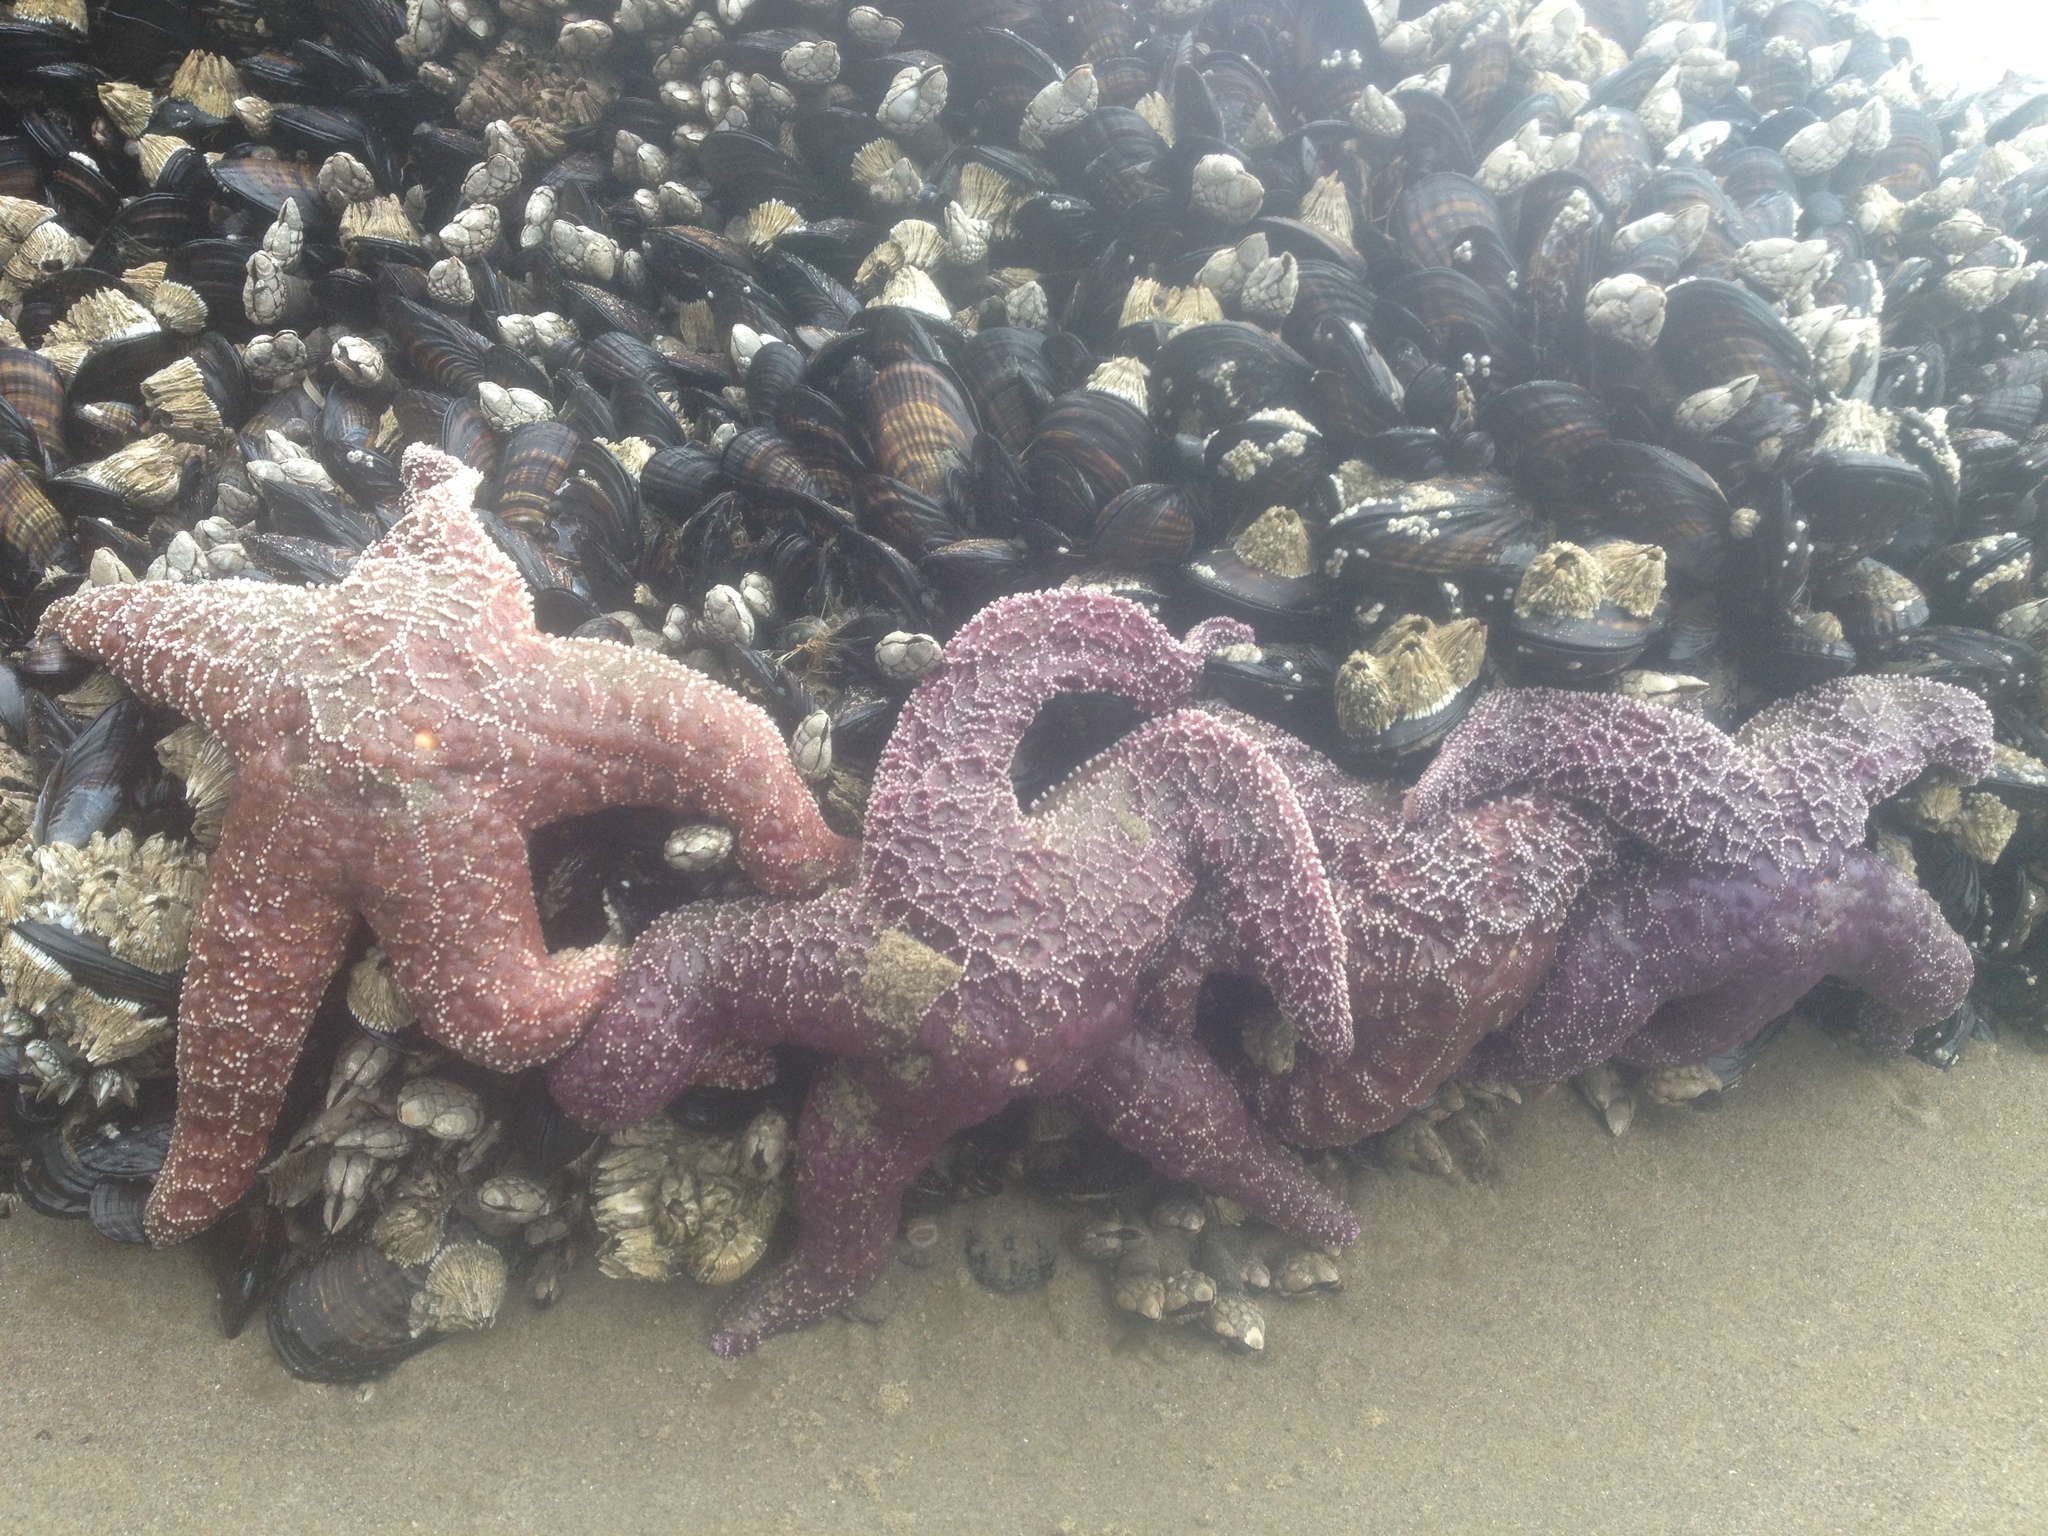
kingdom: Animalia
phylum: Echinodermata
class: Asteroidea
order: Forcipulatida
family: Asteriidae
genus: Pisaster
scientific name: Pisaster ochraceus
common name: Ochre stars
